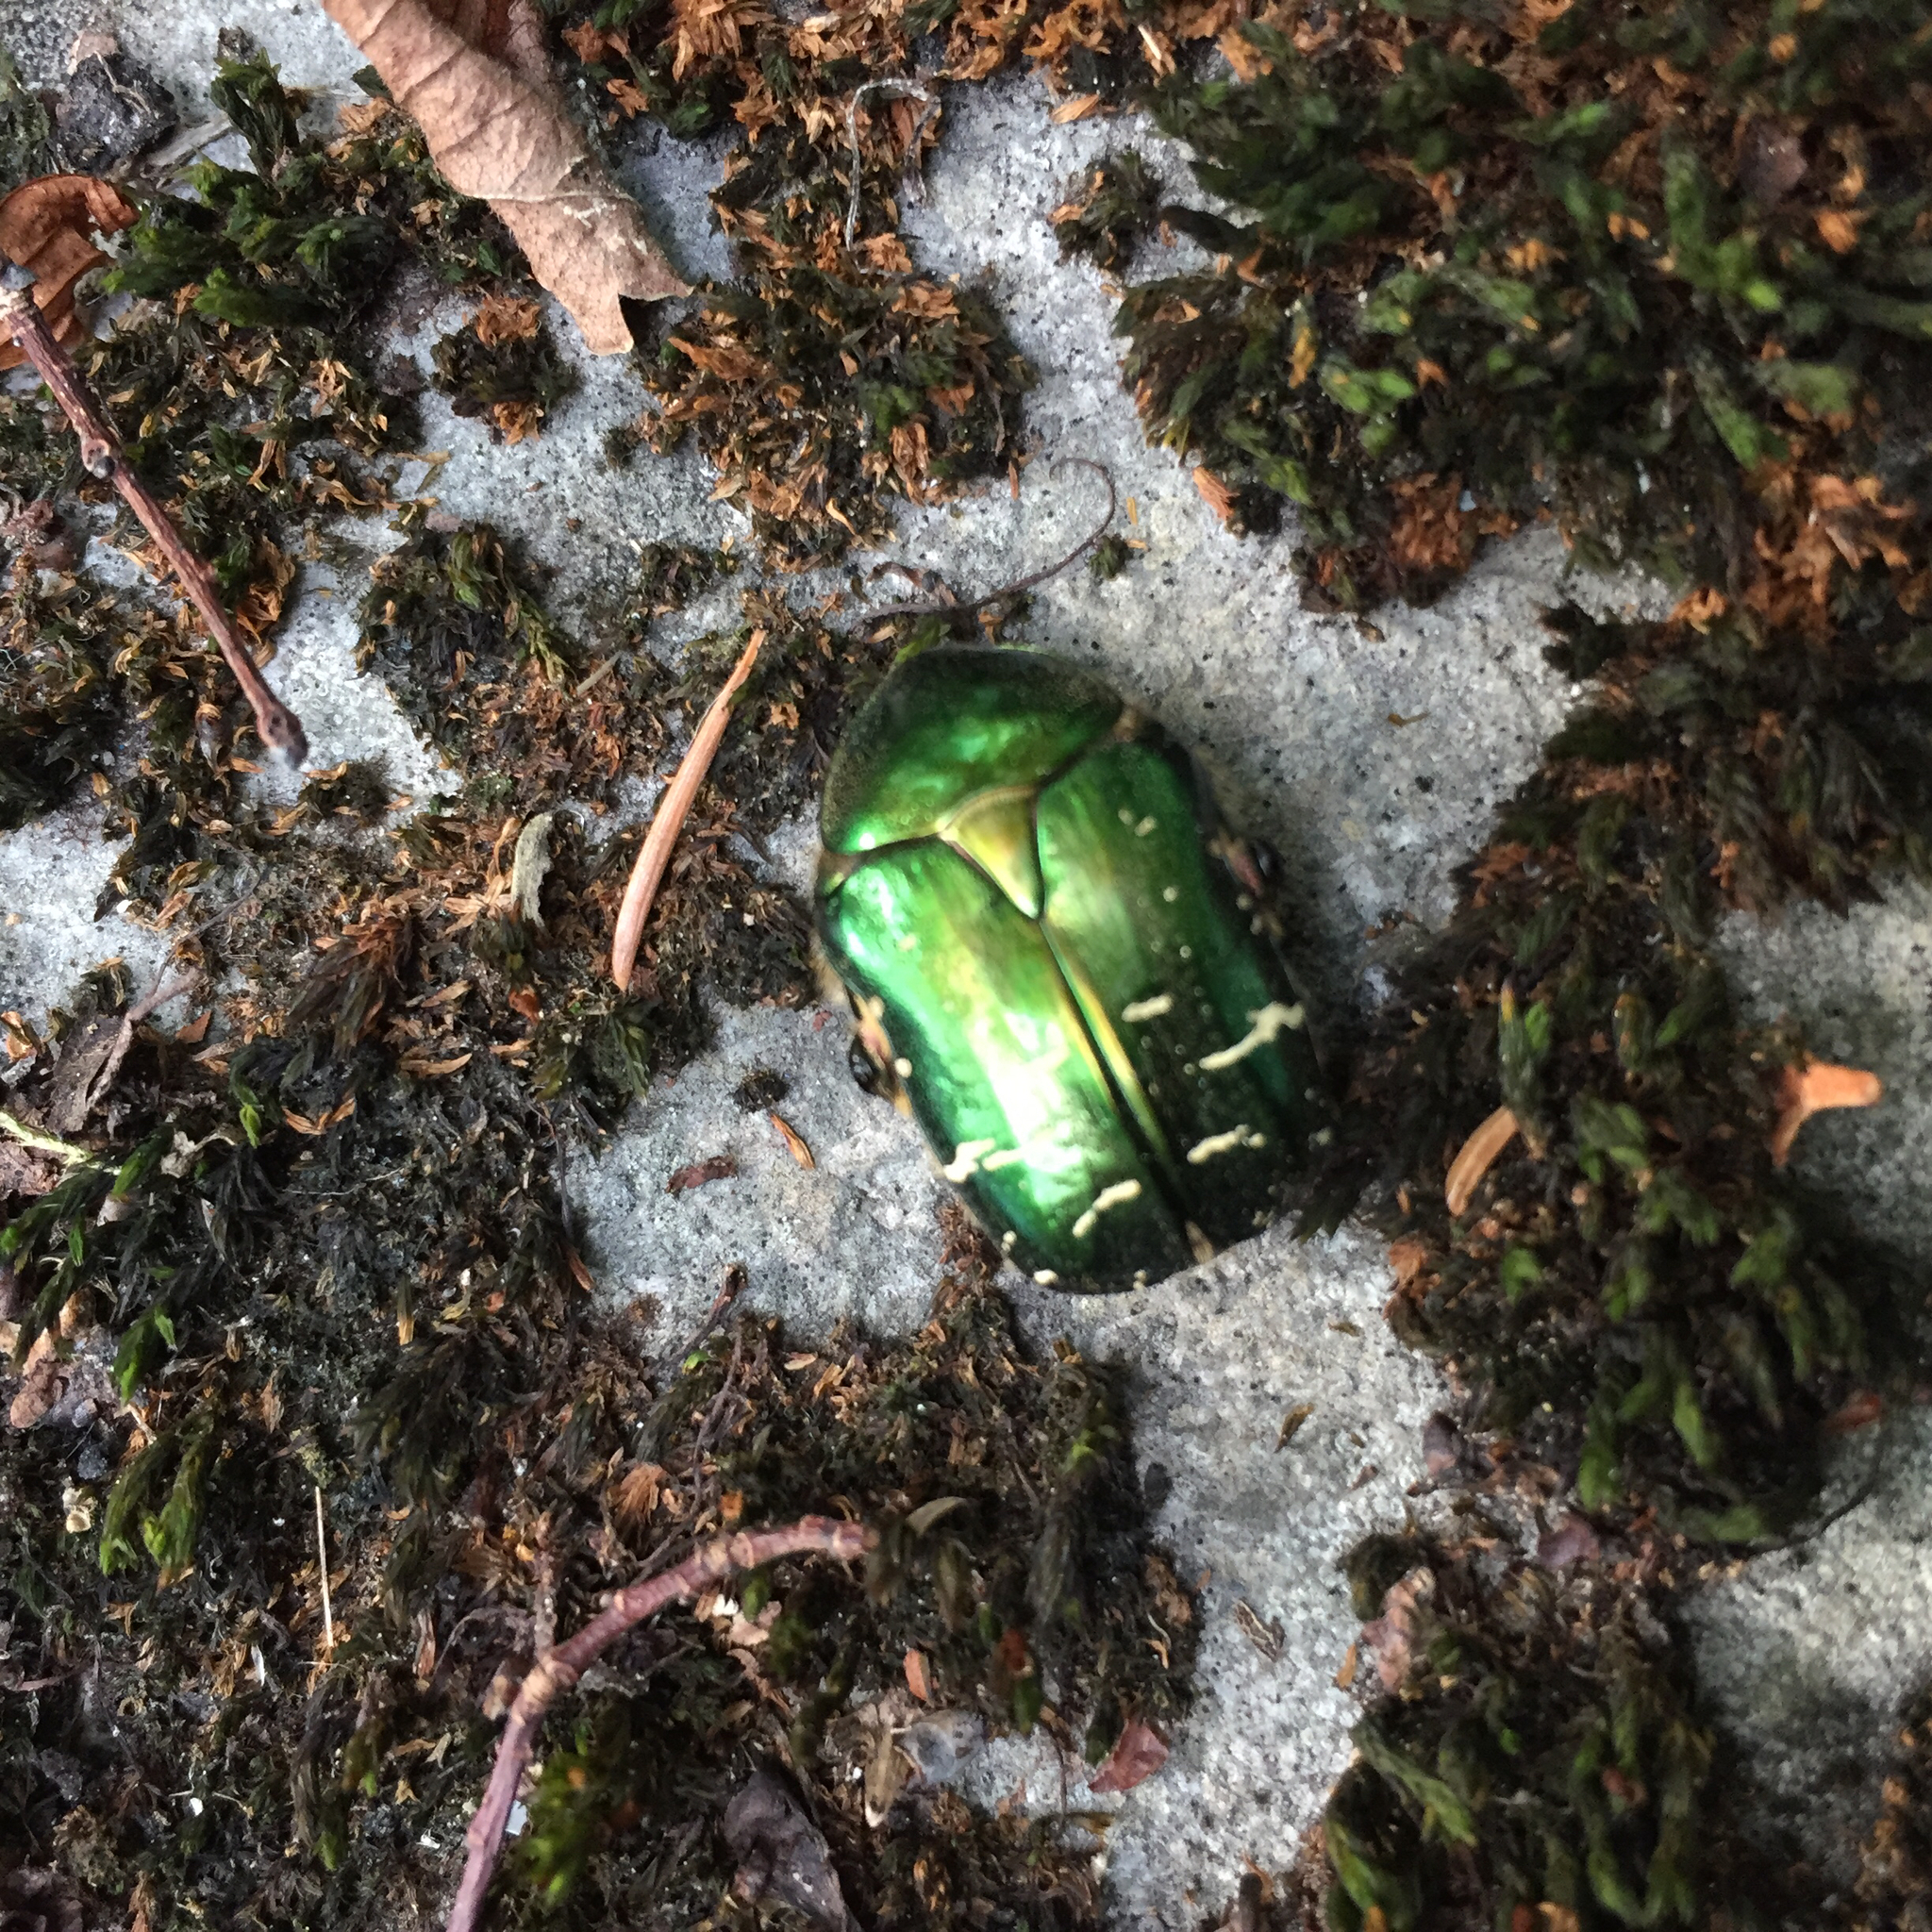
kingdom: Animalia
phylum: Arthropoda
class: Insecta
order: Coleoptera
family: Scarabaeidae
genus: Cetonia
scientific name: Cetonia aurata
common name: Rose chafer
